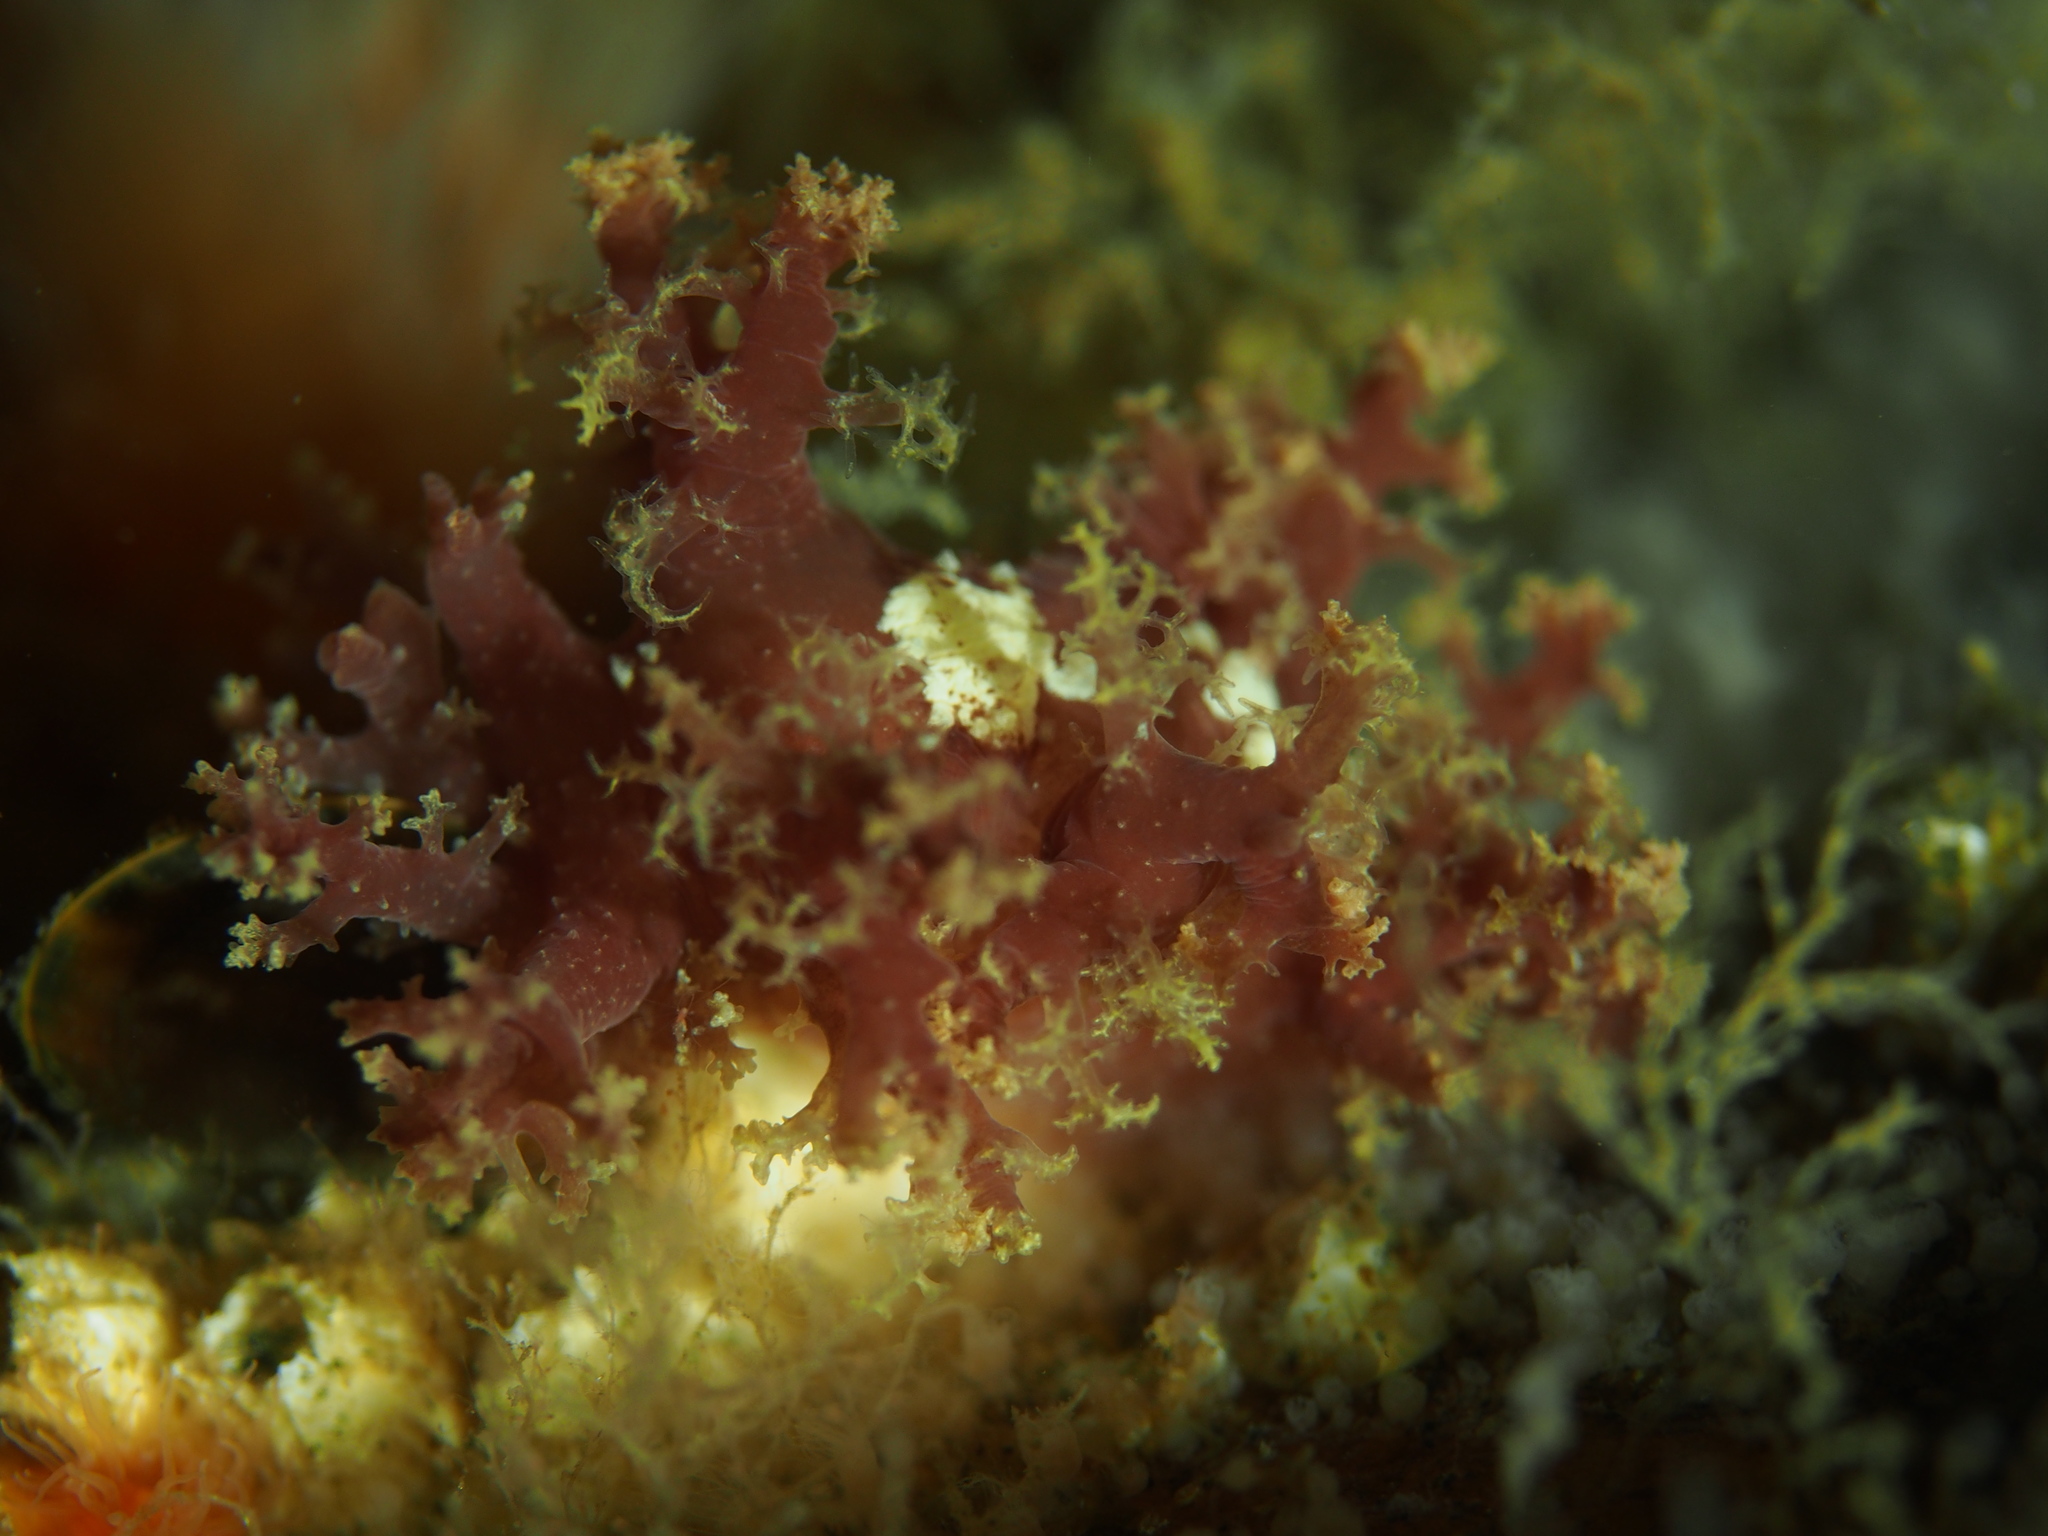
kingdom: Animalia
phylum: Mollusca
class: Gastropoda
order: Nudibranchia
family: Dendronotidae
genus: Dendronotus
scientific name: Dendronotus lacteus
